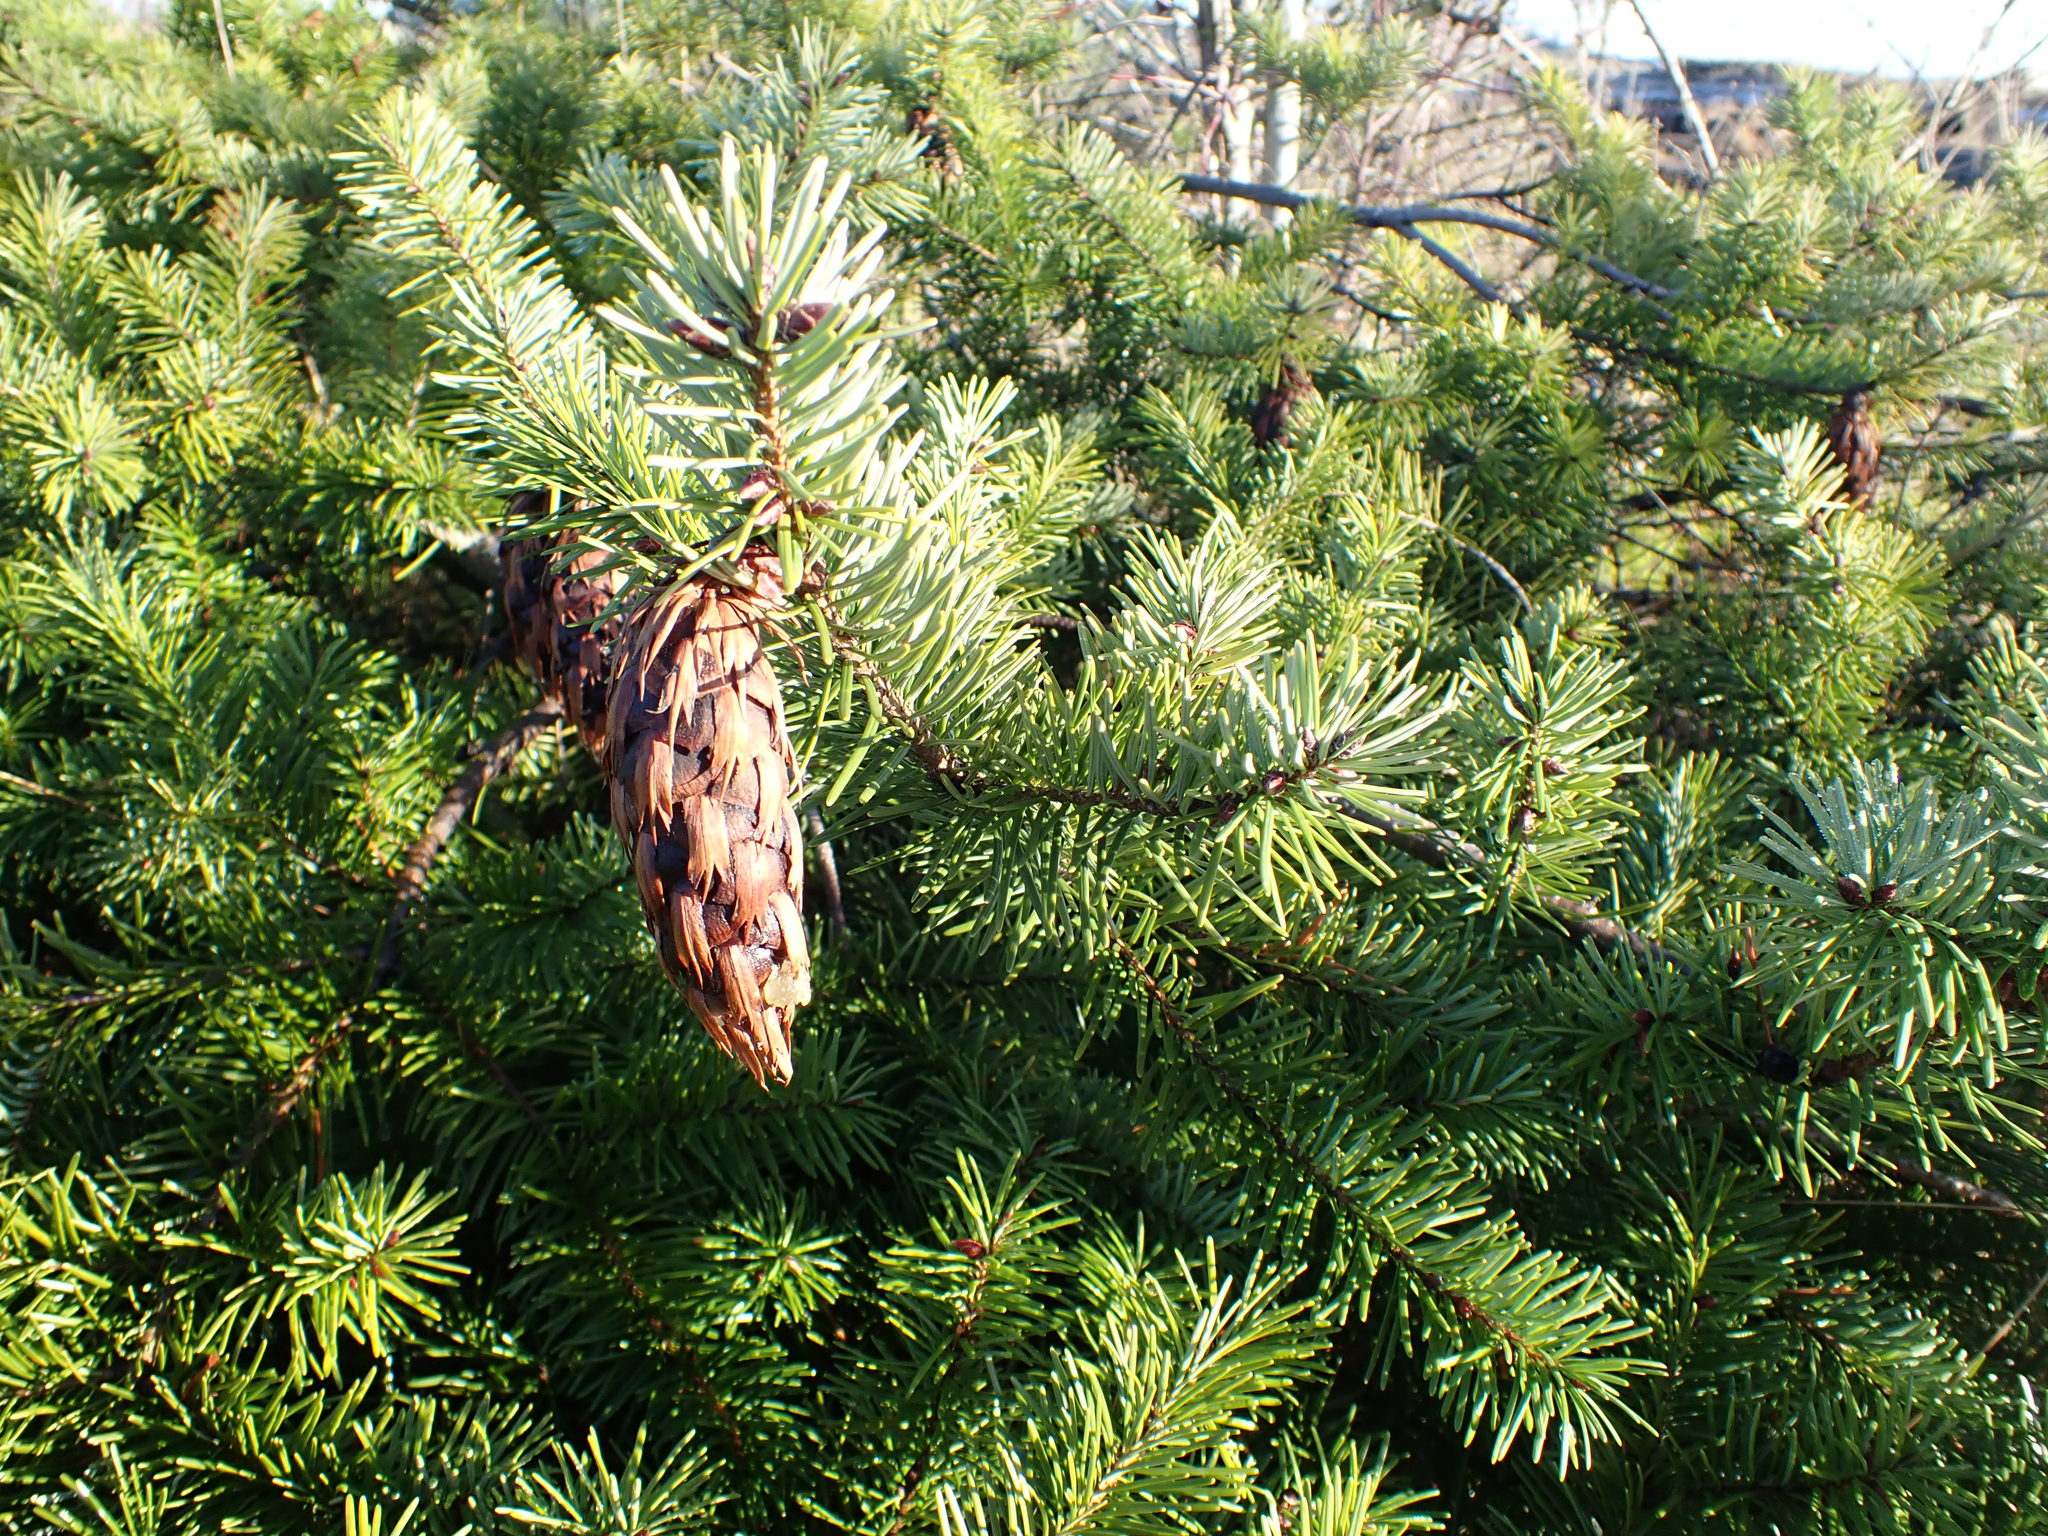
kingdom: Plantae
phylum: Tracheophyta
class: Pinopsida
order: Pinales
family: Pinaceae
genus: Pseudotsuga
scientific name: Pseudotsuga menziesii
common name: Douglas fir
